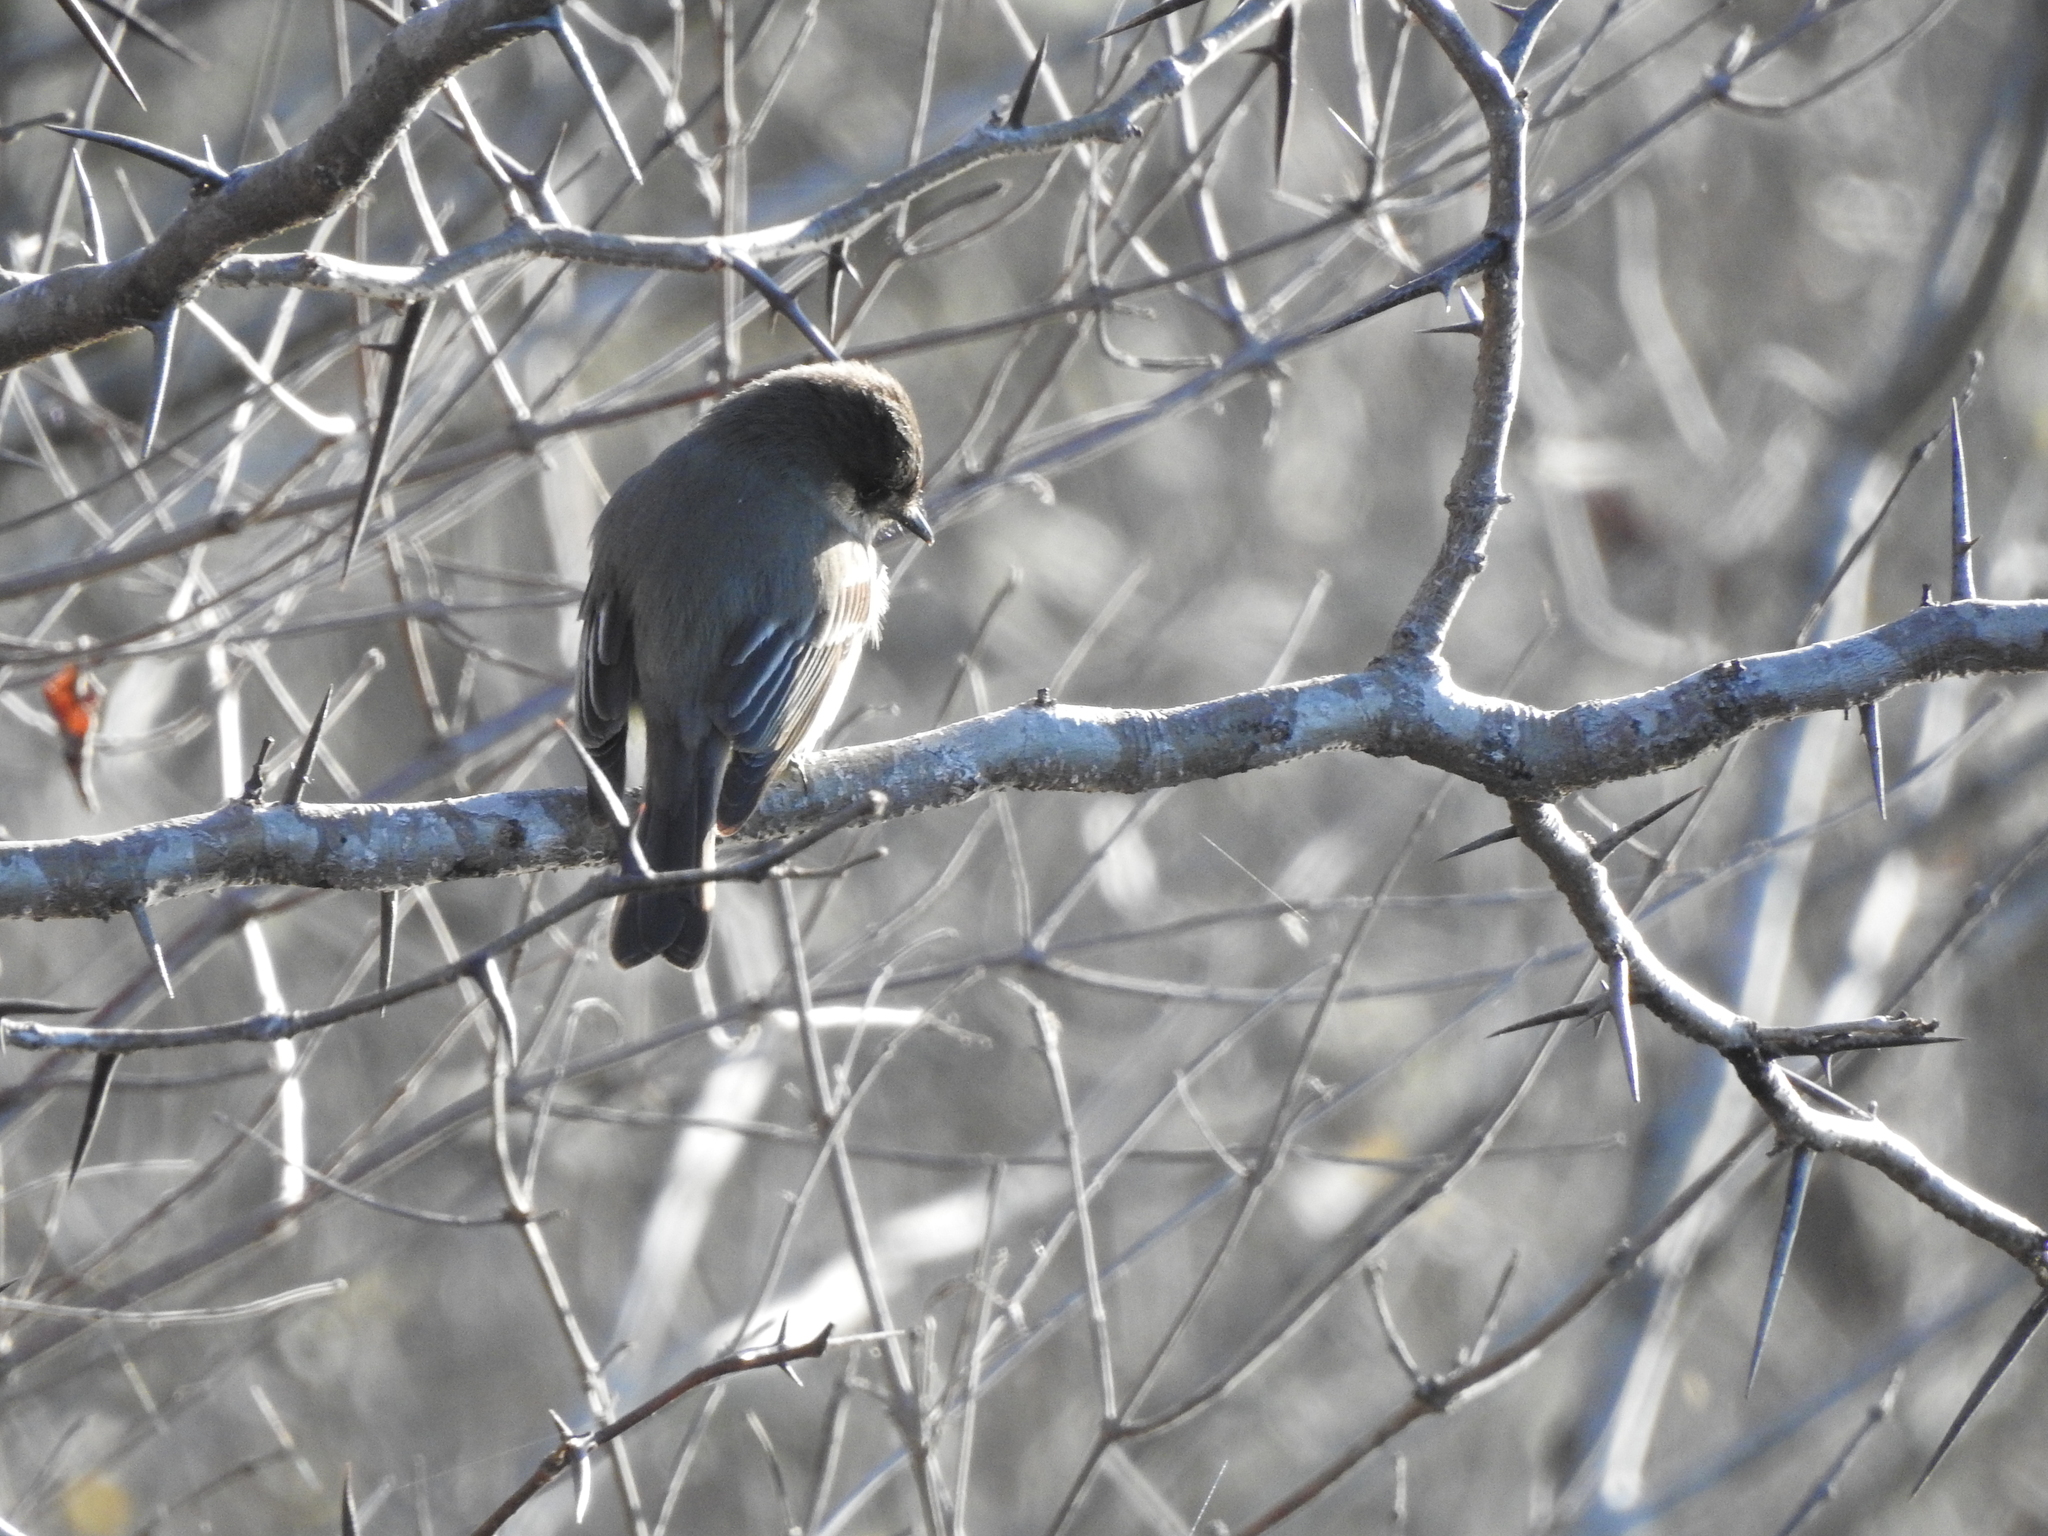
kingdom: Animalia
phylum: Chordata
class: Aves
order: Passeriformes
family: Tyrannidae
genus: Sayornis
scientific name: Sayornis phoebe
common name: Eastern phoebe
